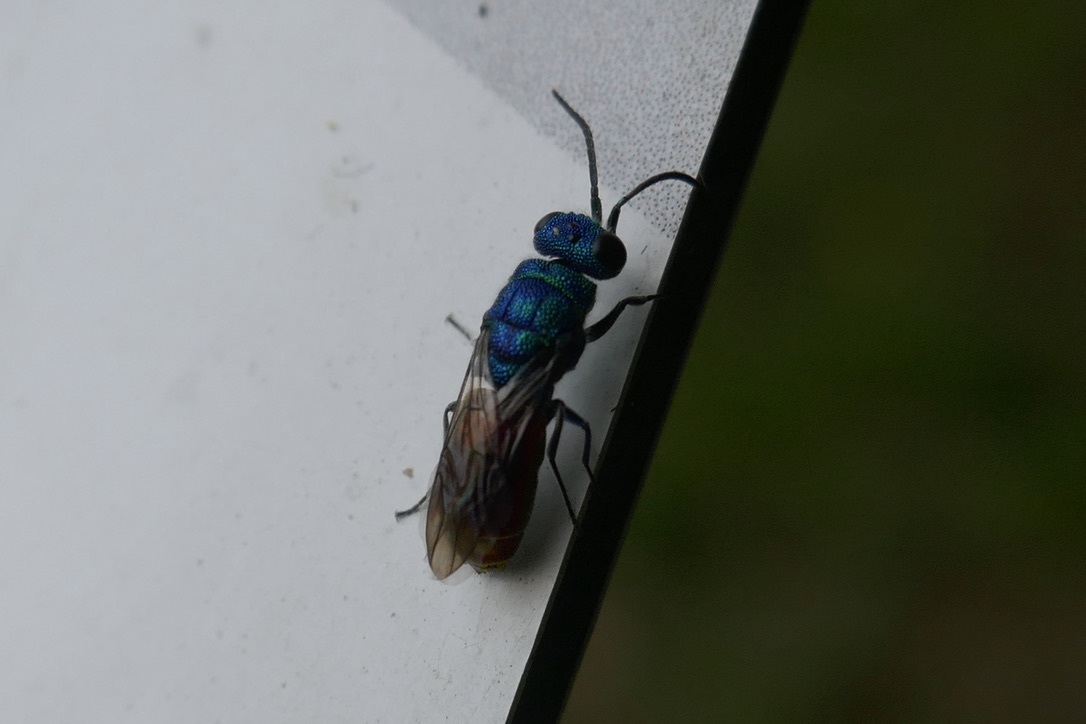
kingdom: Animalia
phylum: Arthropoda
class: Insecta
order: Hymenoptera
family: Chrysididae
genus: Chrysis
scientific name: Chrysis terminata
